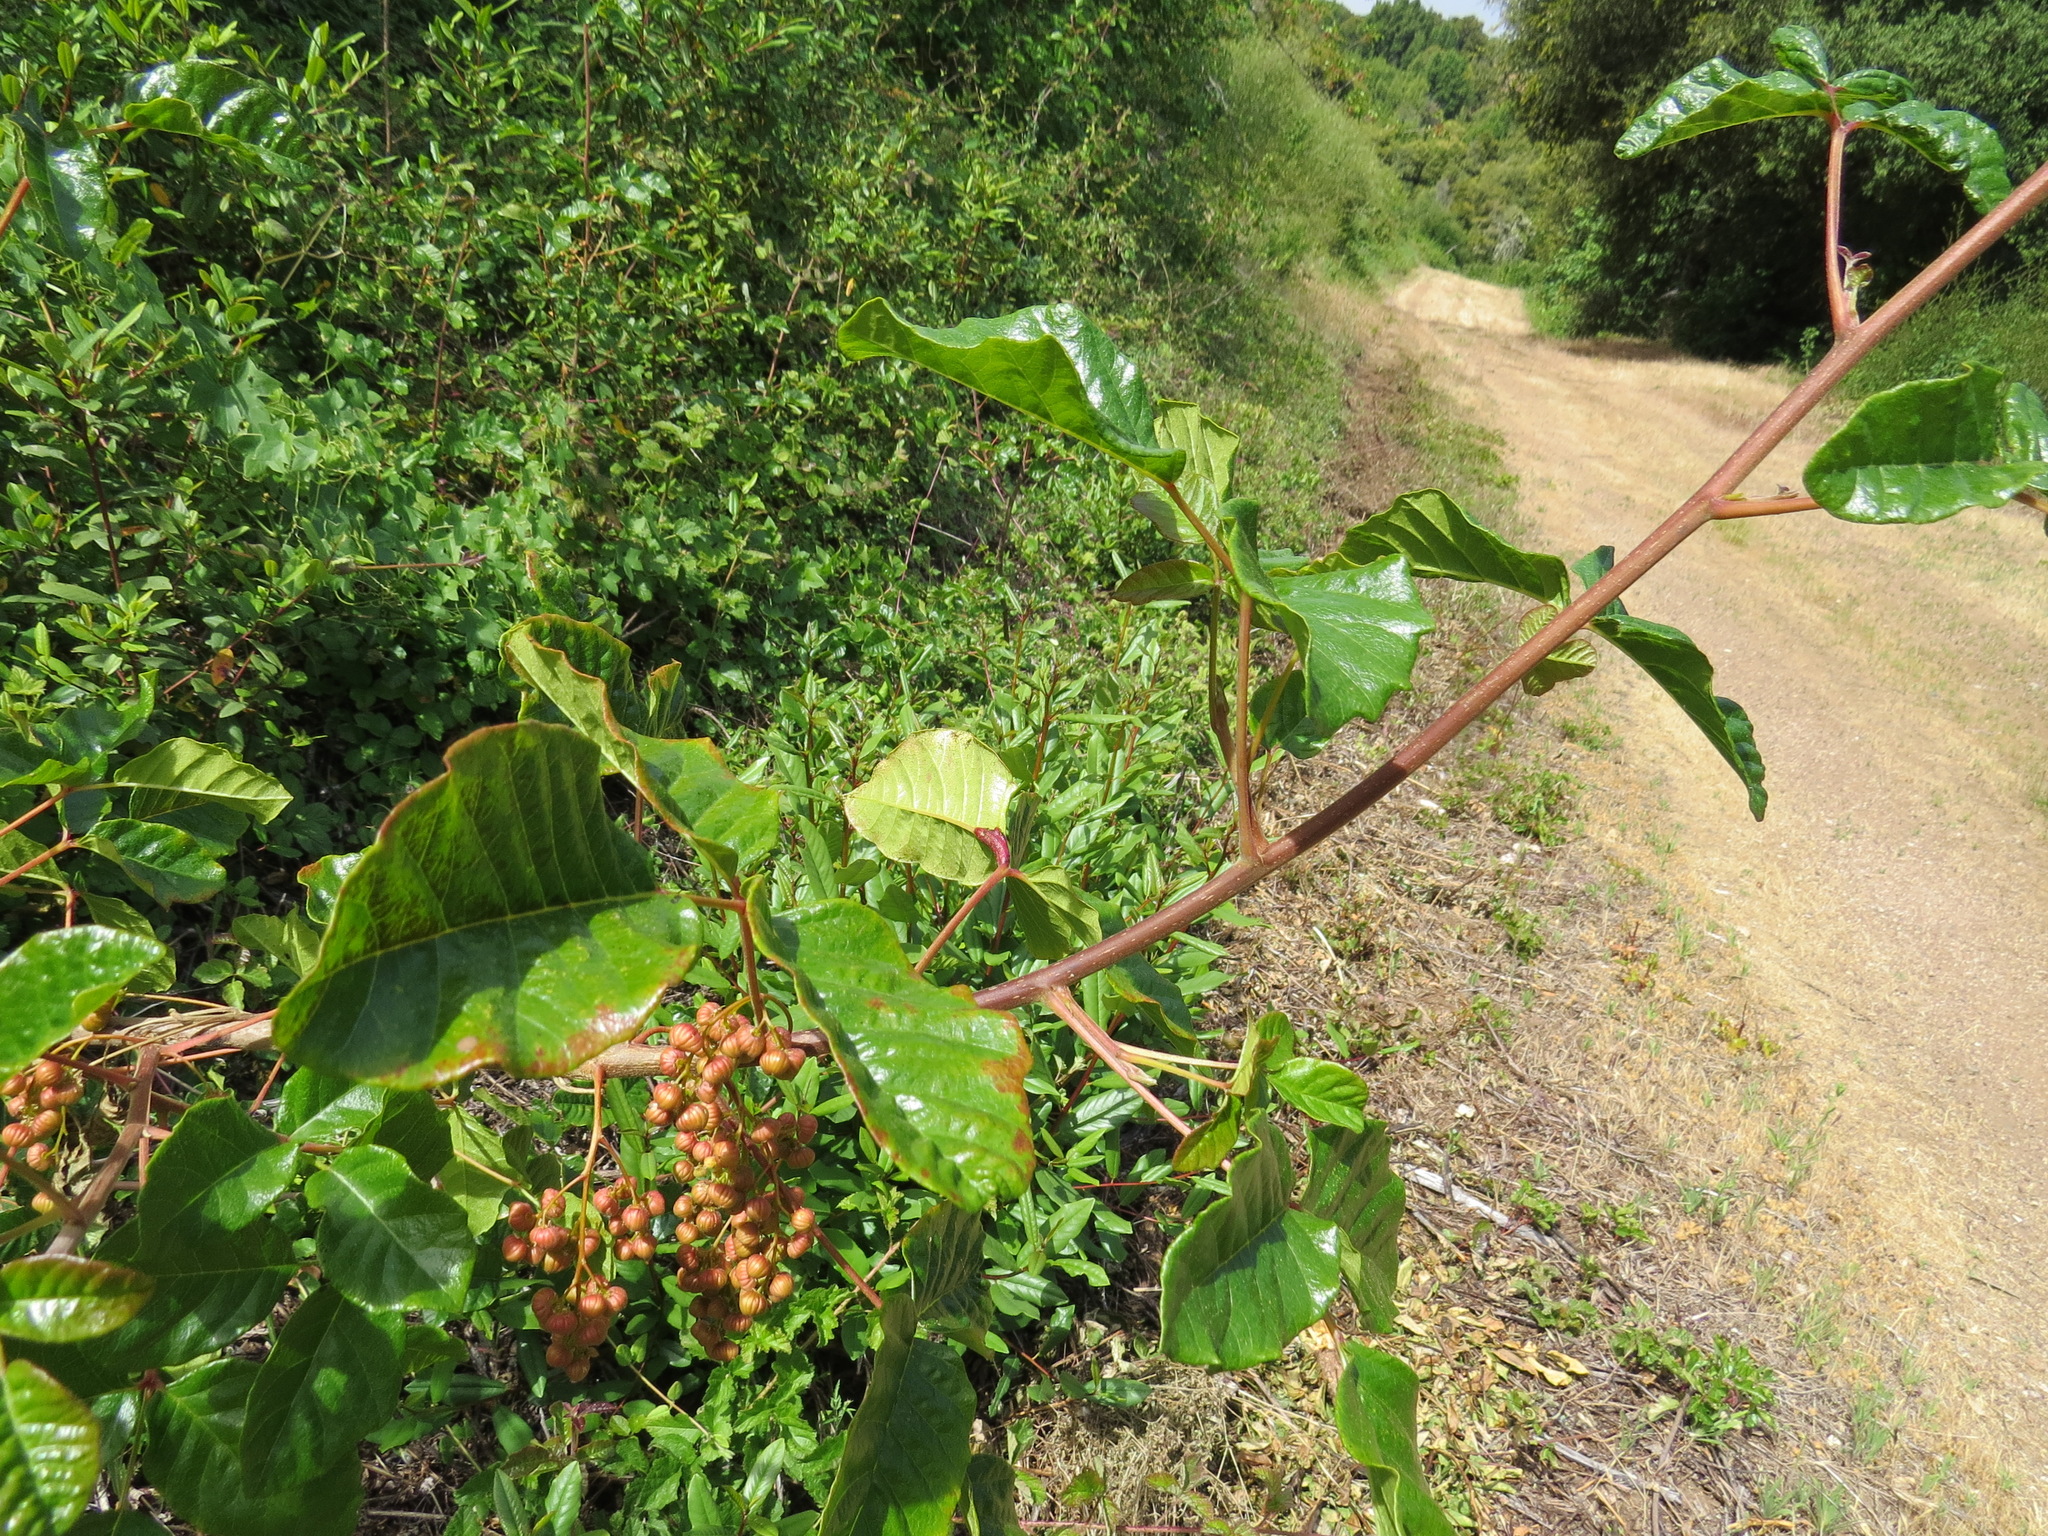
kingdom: Fungi
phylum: Basidiomycota
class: Pucciniomycetes
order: Pucciniales
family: Pileolariaceae
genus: Pileolaria
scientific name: Pileolaria brevipes
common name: Poison ivy rust
